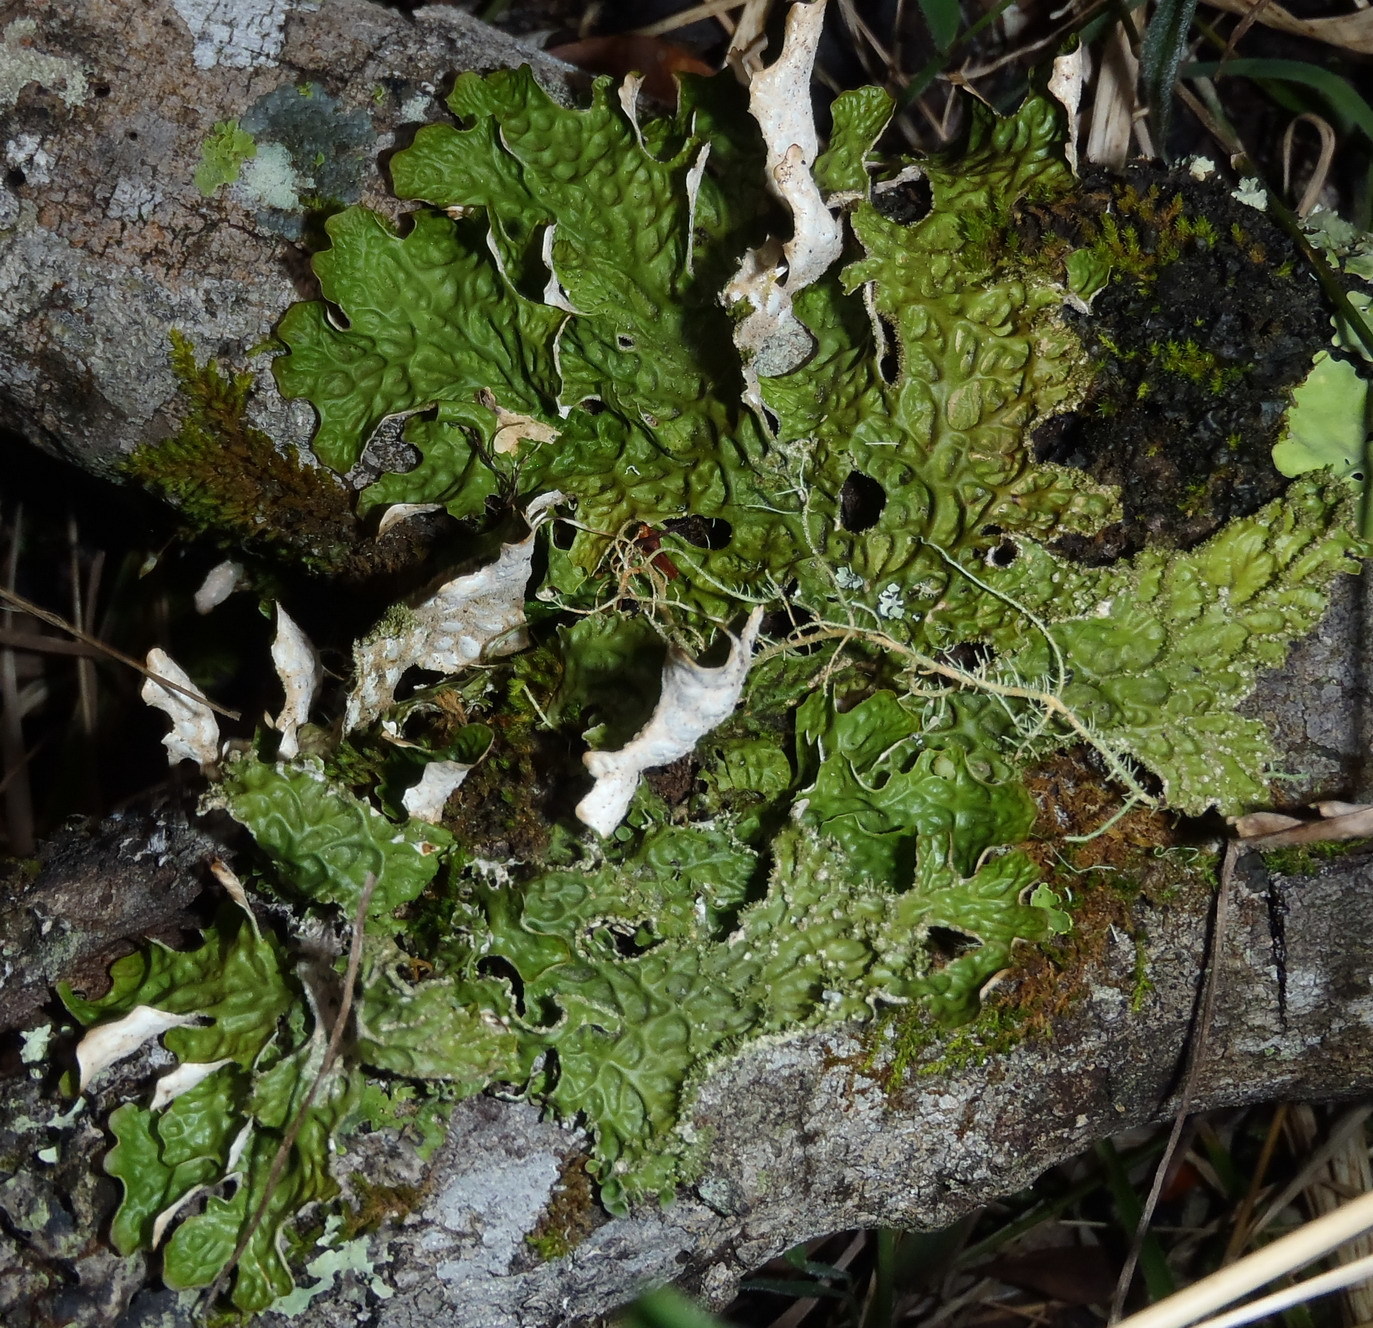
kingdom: Fungi
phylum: Ascomycota
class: Lecanoromycetes
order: Peltigerales
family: Lobariaceae
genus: Lobaria
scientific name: Lobaria pulmonaria
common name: Lungwort
